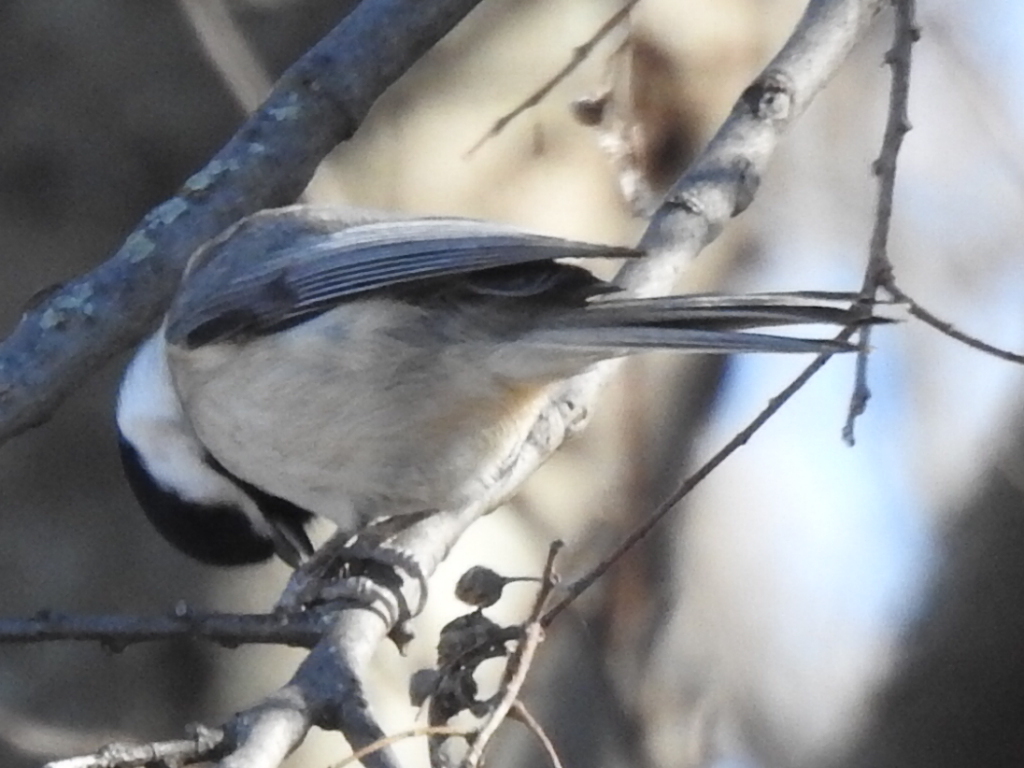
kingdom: Animalia
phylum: Chordata
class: Aves
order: Passeriformes
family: Paridae
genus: Poecile
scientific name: Poecile carolinensis
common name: Carolina chickadee
